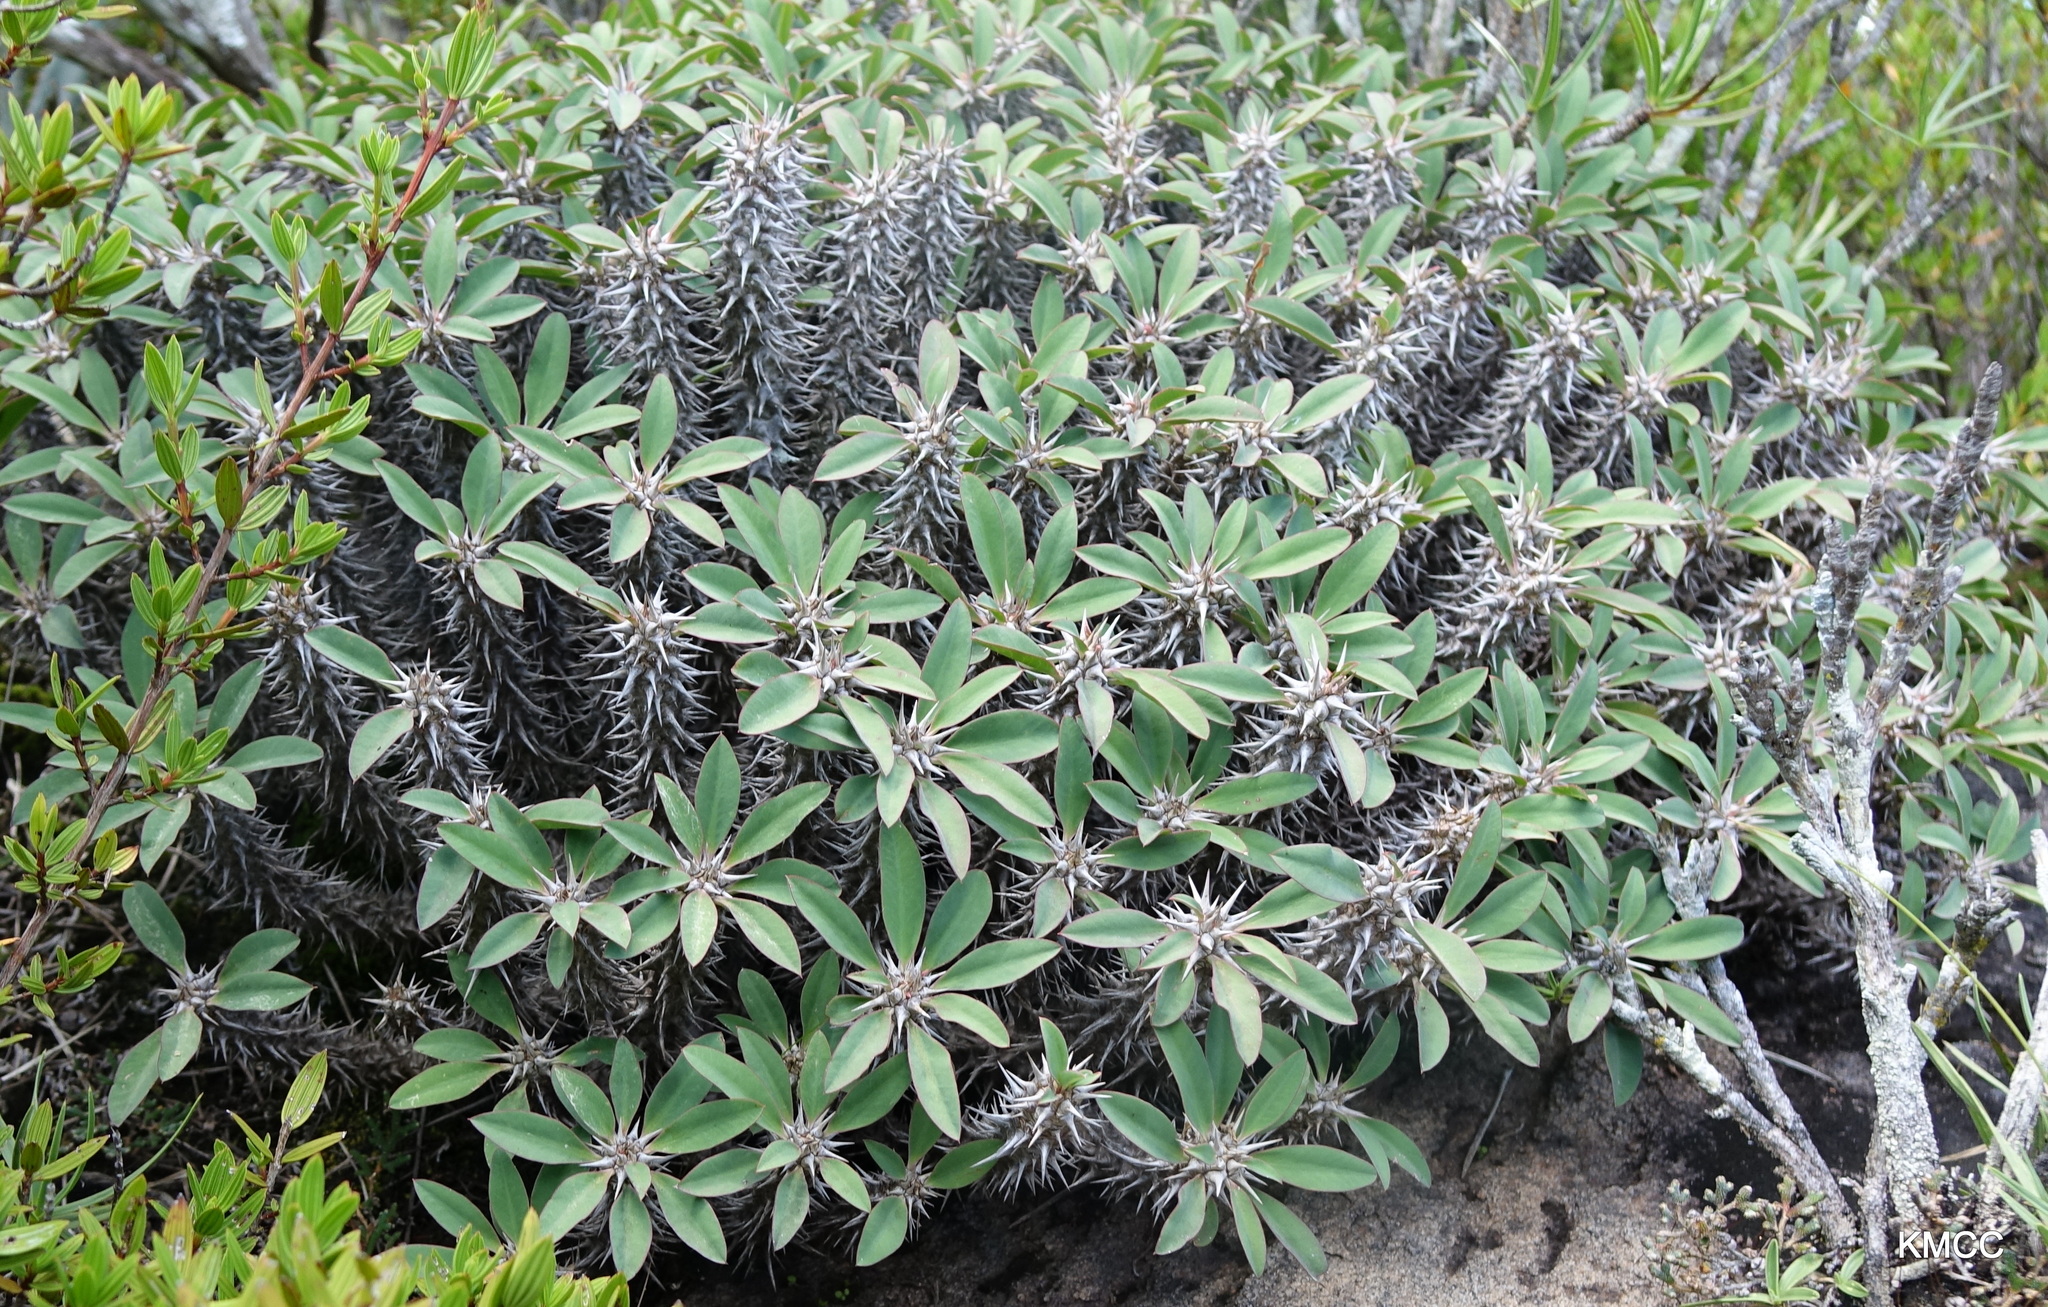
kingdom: Plantae
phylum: Tracheophyta
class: Magnoliopsida
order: Malpighiales
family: Euphorbiaceae
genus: Euphorbia
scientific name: Euphorbia fianarantsoae
